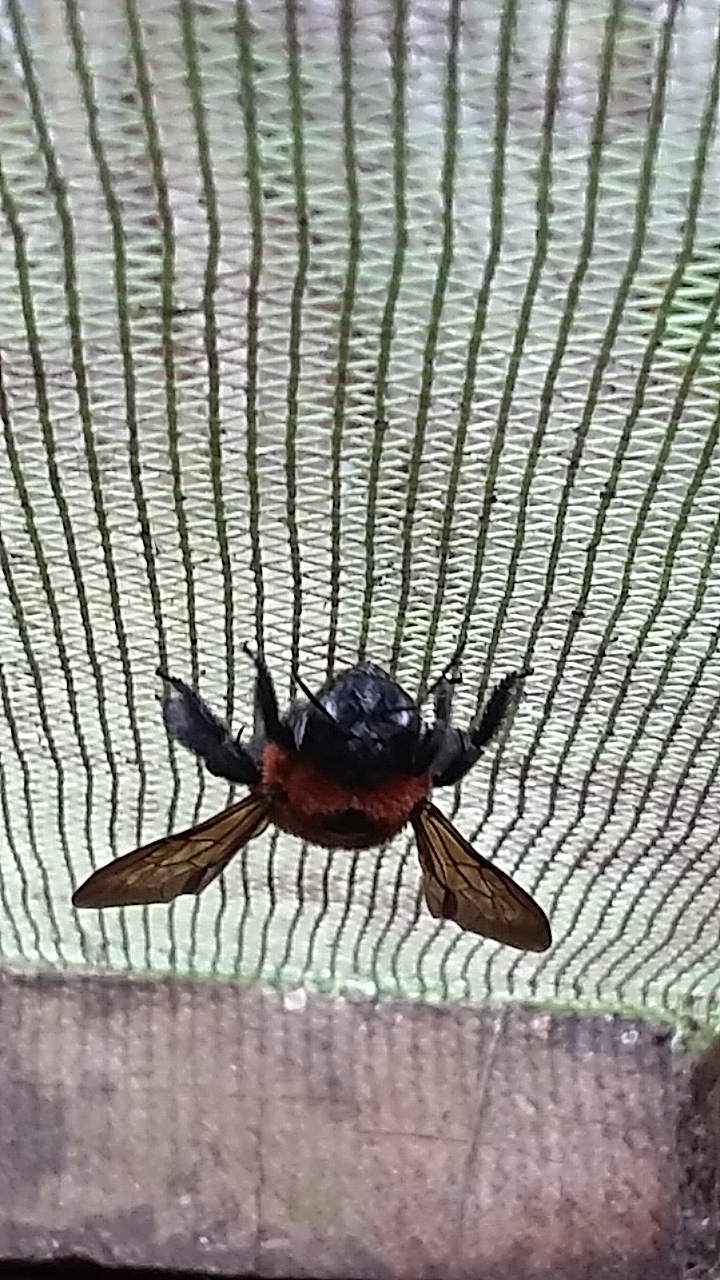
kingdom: Animalia
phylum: Arthropoda
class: Insecta
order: Hymenoptera
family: Apidae
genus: Xylocopa
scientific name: Xylocopa similis
